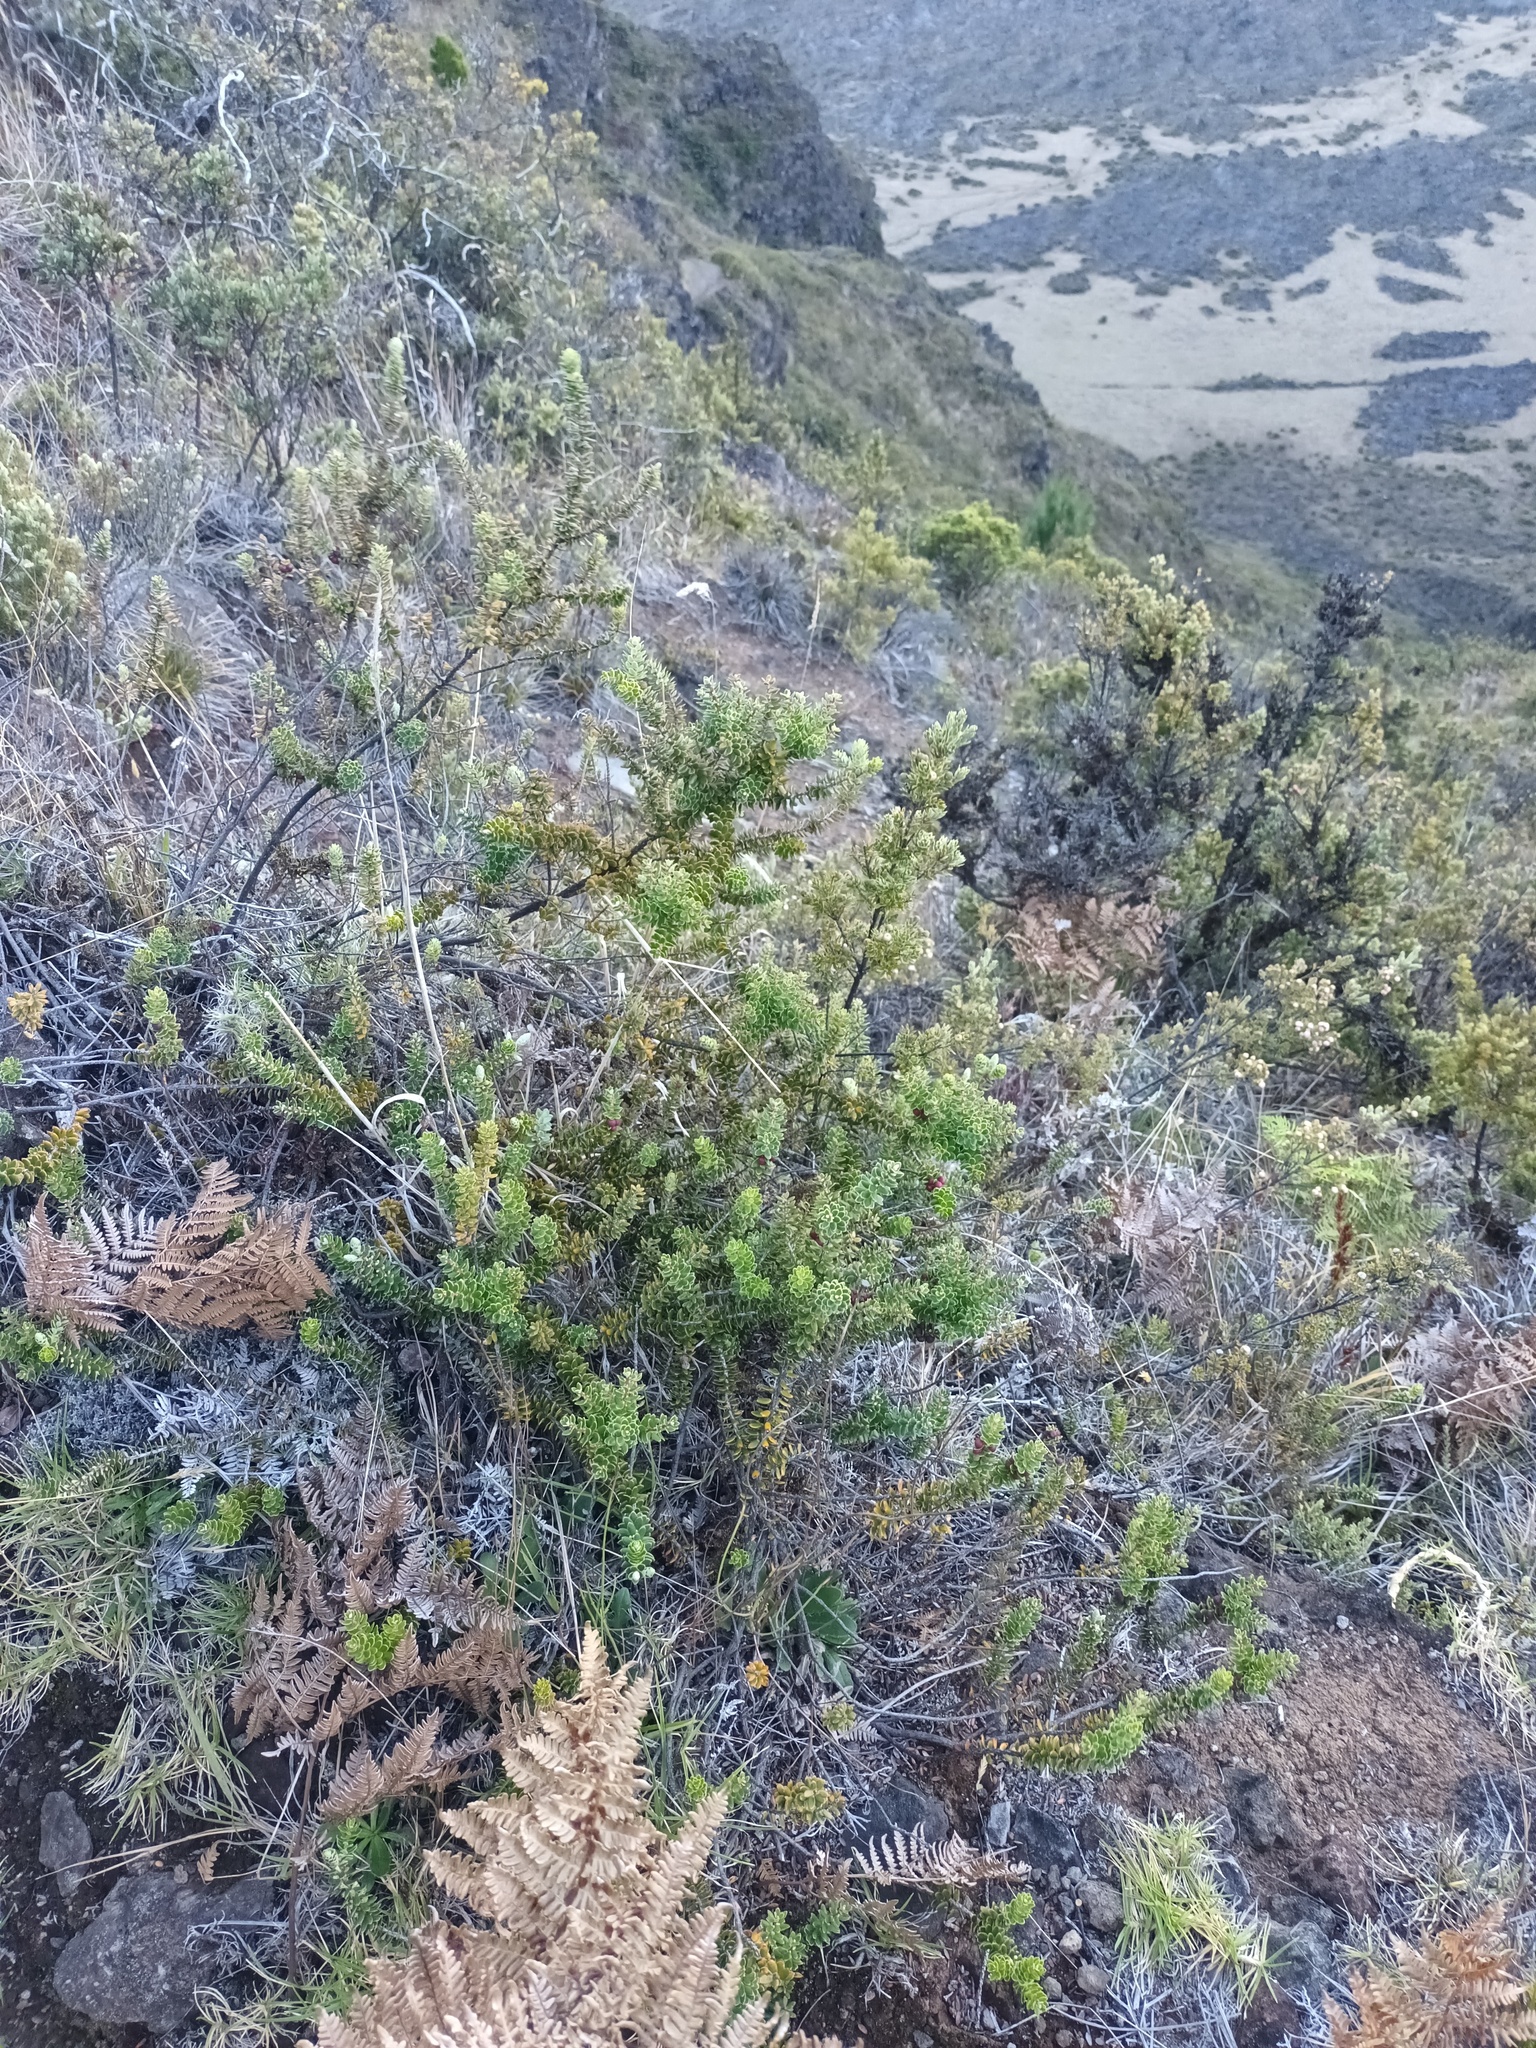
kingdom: Plantae
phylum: Tracheophyta
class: Magnoliopsida
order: Ericales
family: Ericaceae
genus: Leptecophylla
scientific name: Leptecophylla tameiameiae
